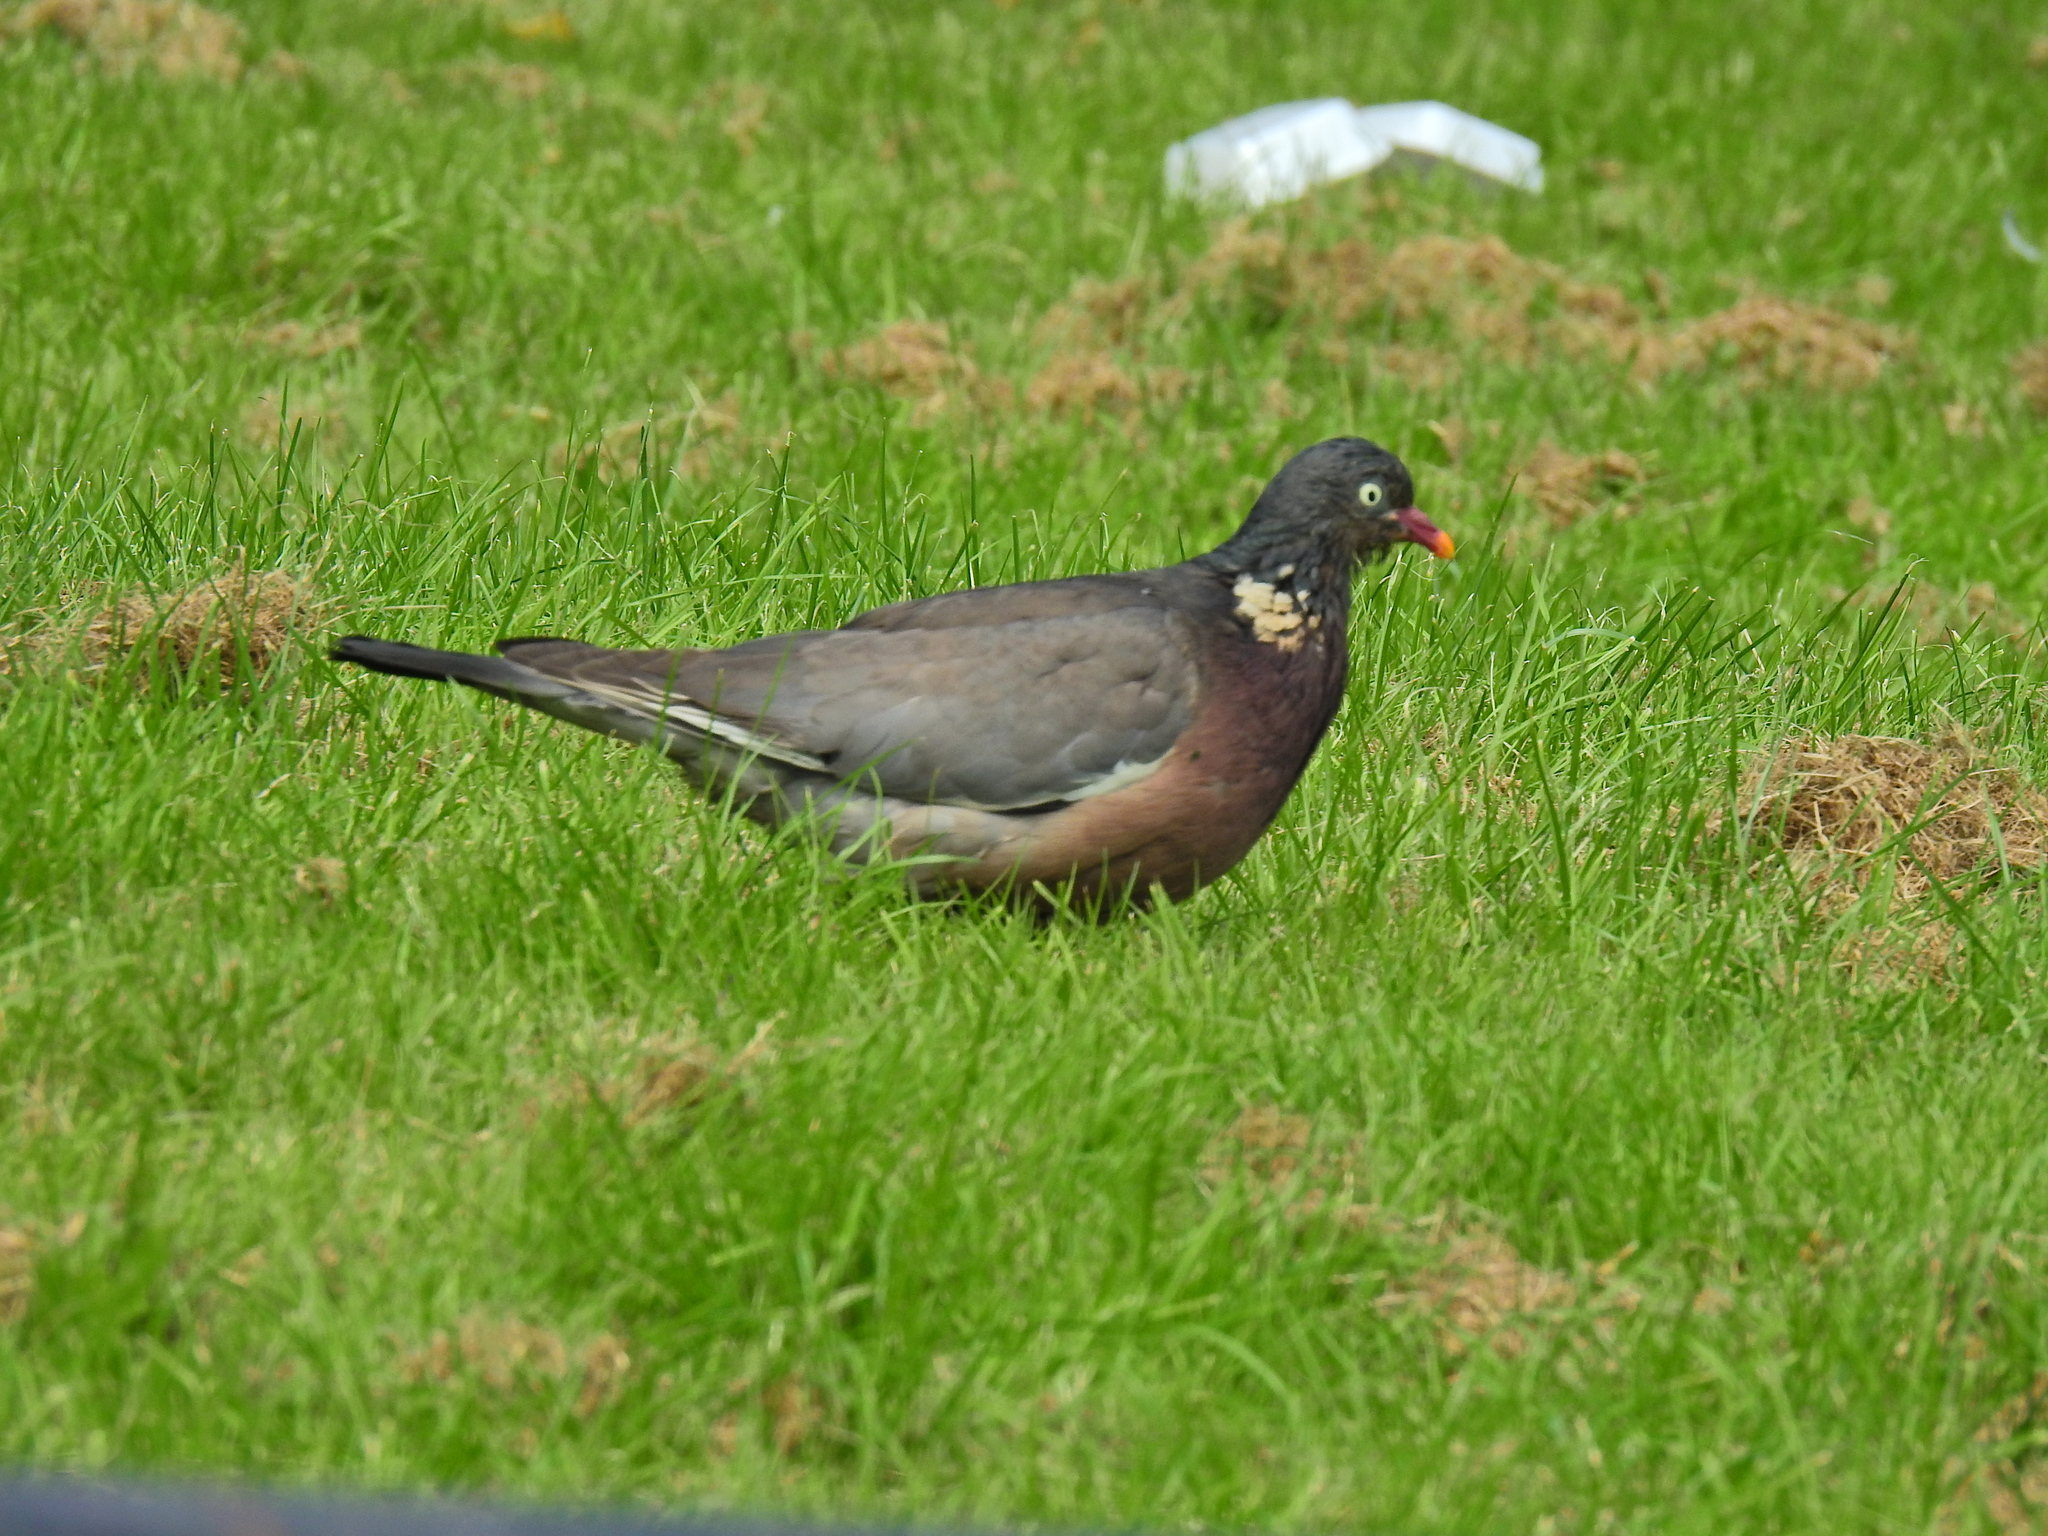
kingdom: Animalia
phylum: Chordata
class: Aves
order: Columbiformes
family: Columbidae
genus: Columba
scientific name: Columba palumbus
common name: Common wood pigeon
